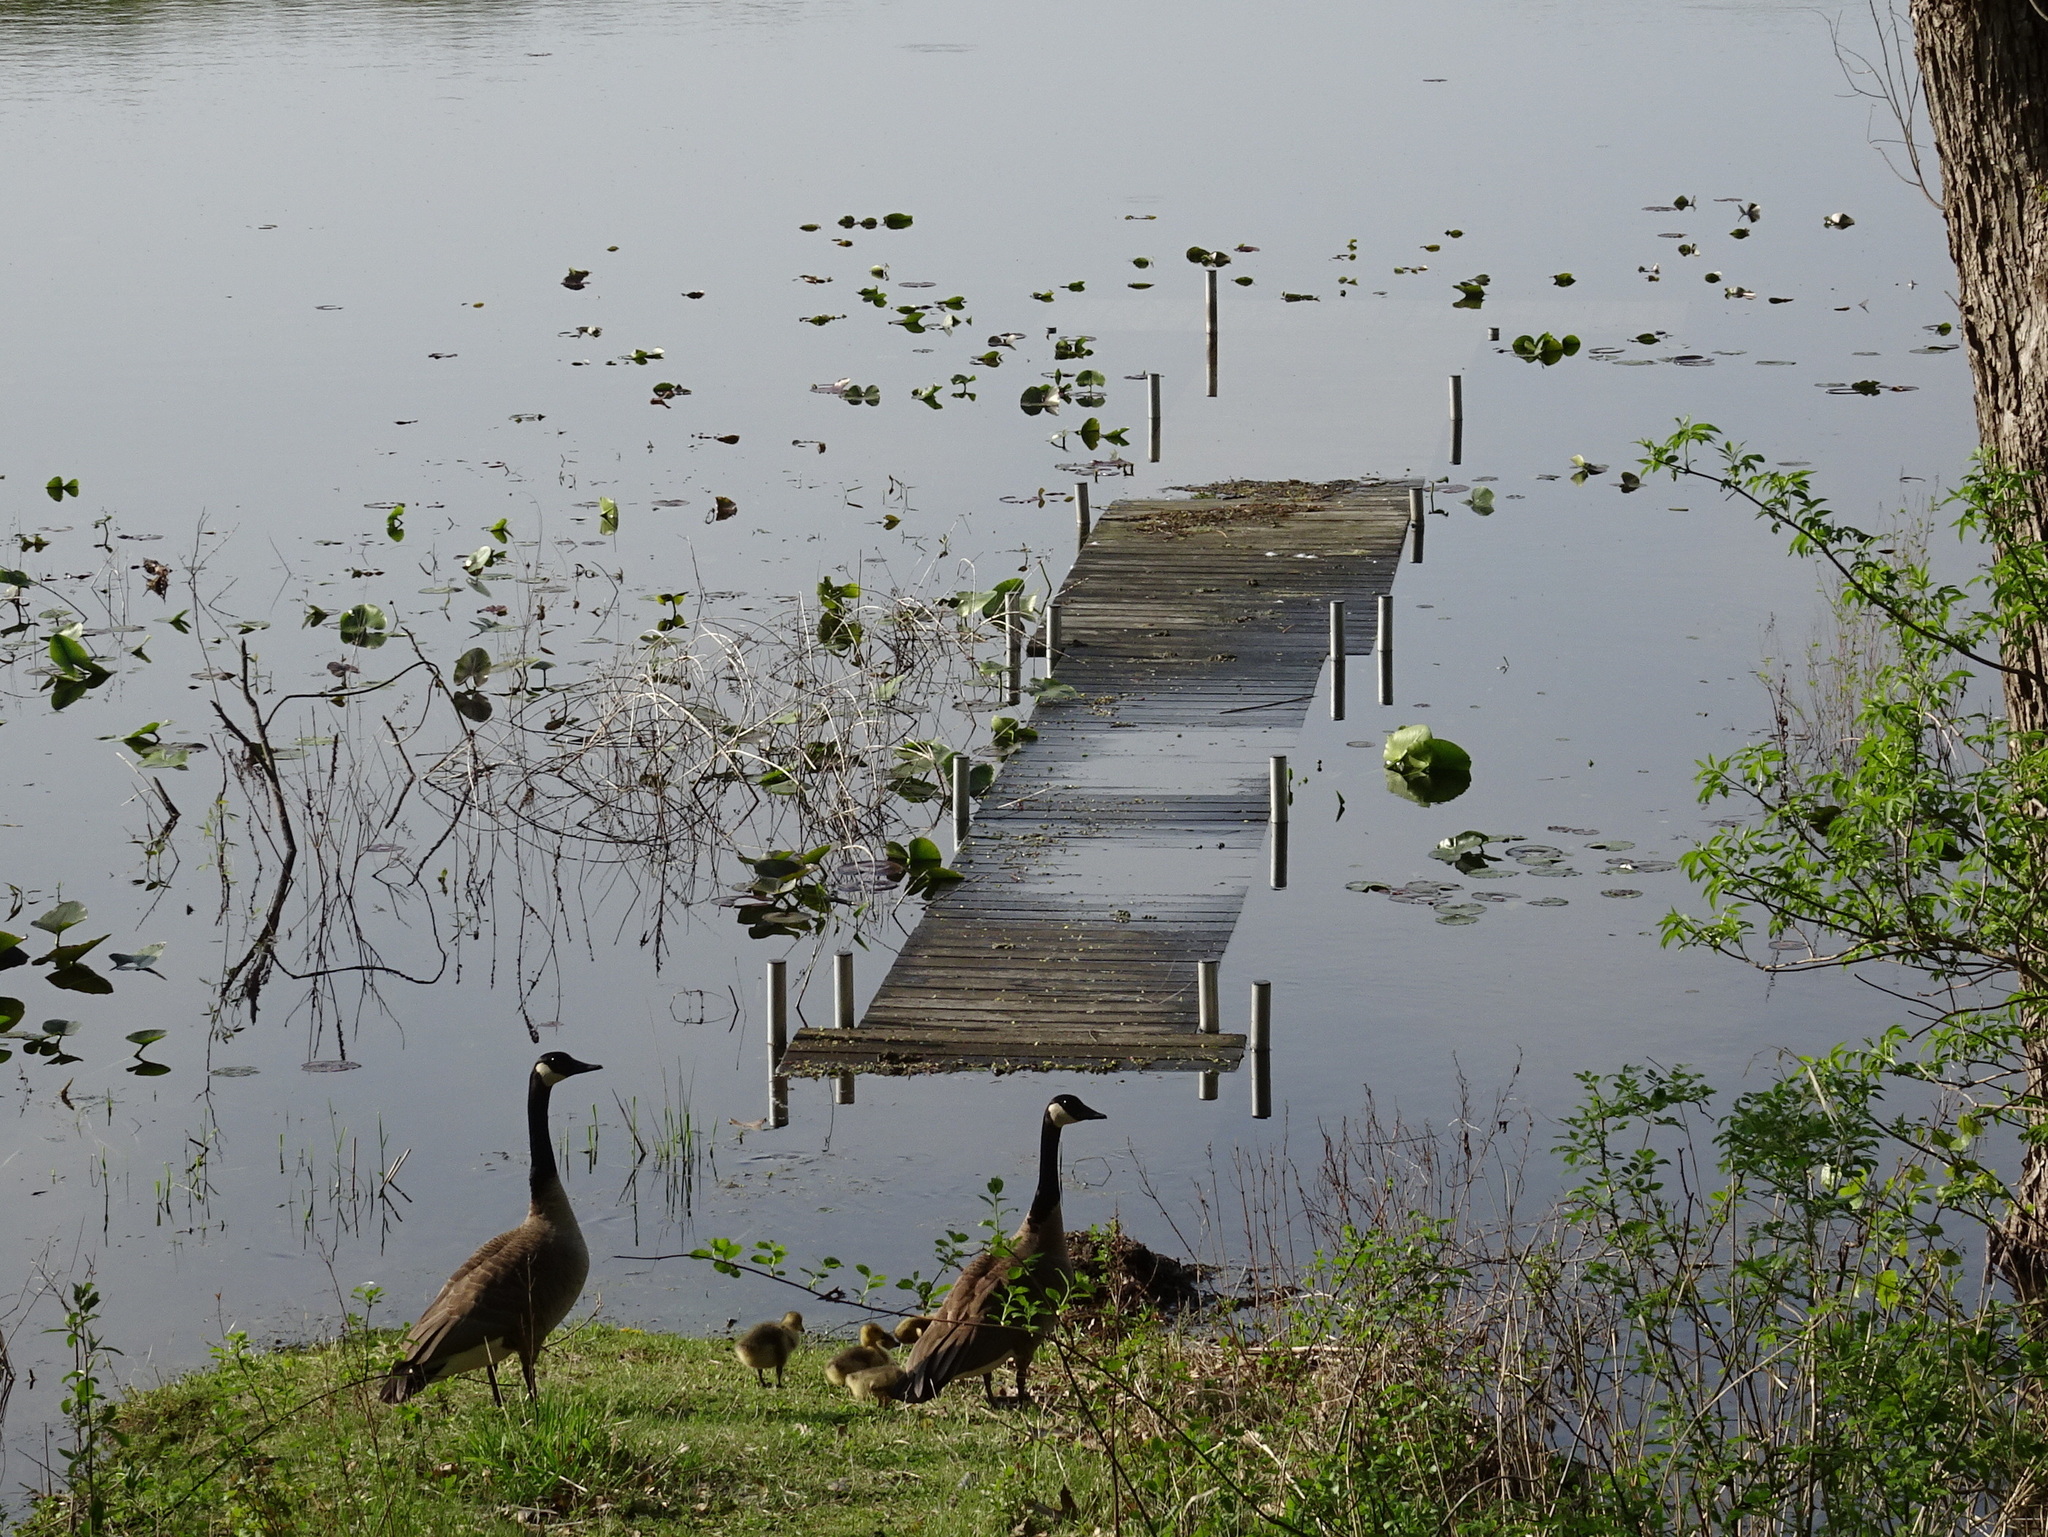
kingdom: Animalia
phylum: Chordata
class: Aves
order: Anseriformes
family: Anatidae
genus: Branta
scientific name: Branta canadensis
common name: Canada goose
